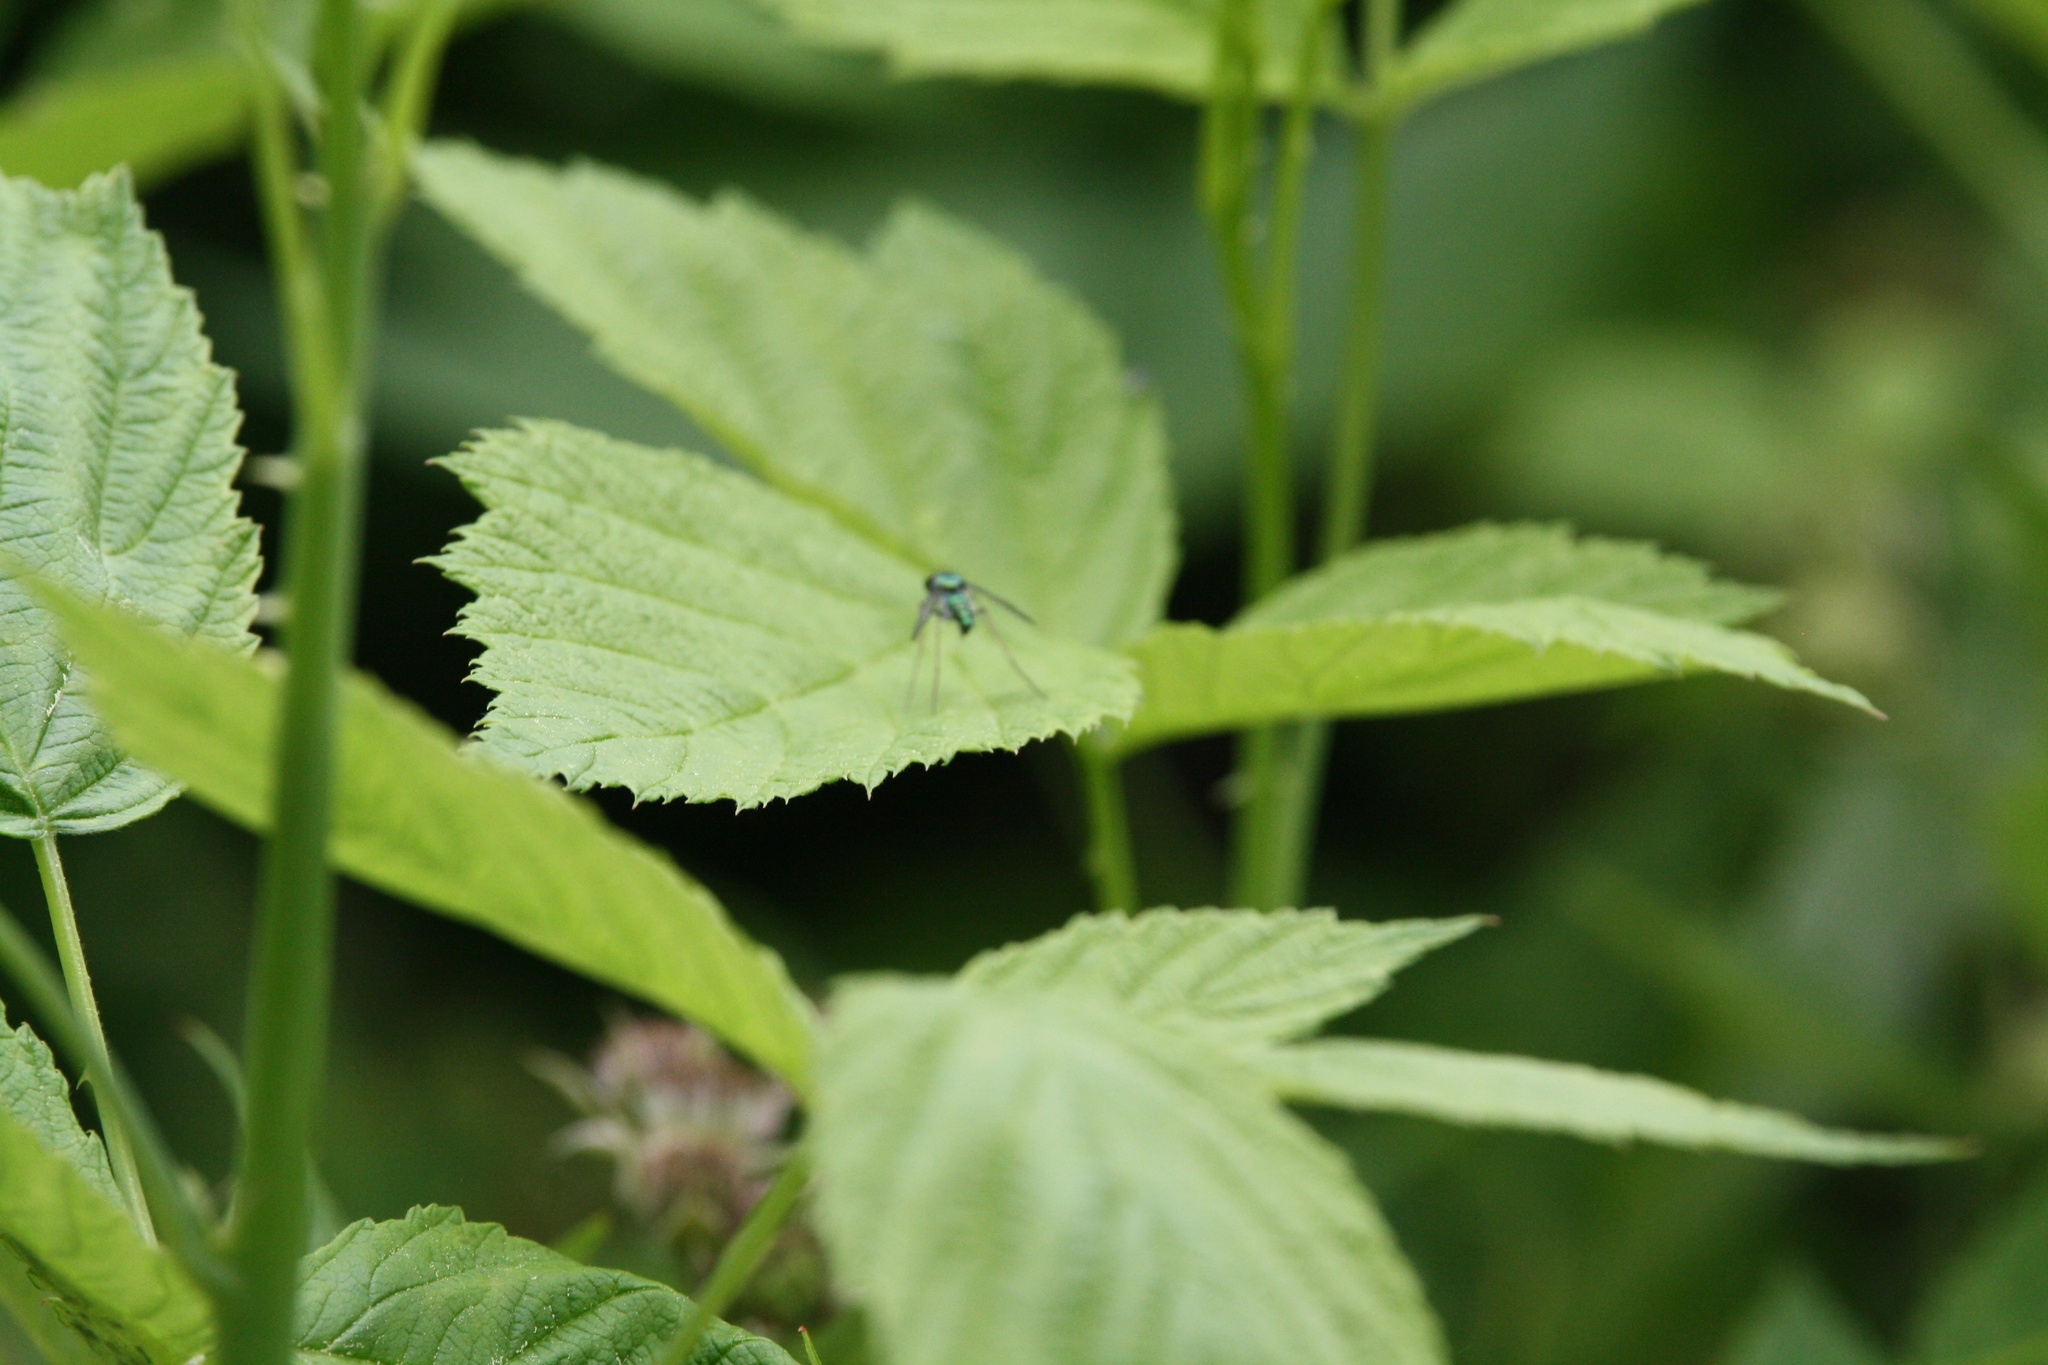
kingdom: Animalia
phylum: Arthropoda
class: Insecta
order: Diptera
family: Dolichopodidae
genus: Condylostylus
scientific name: Condylostylus comatus
